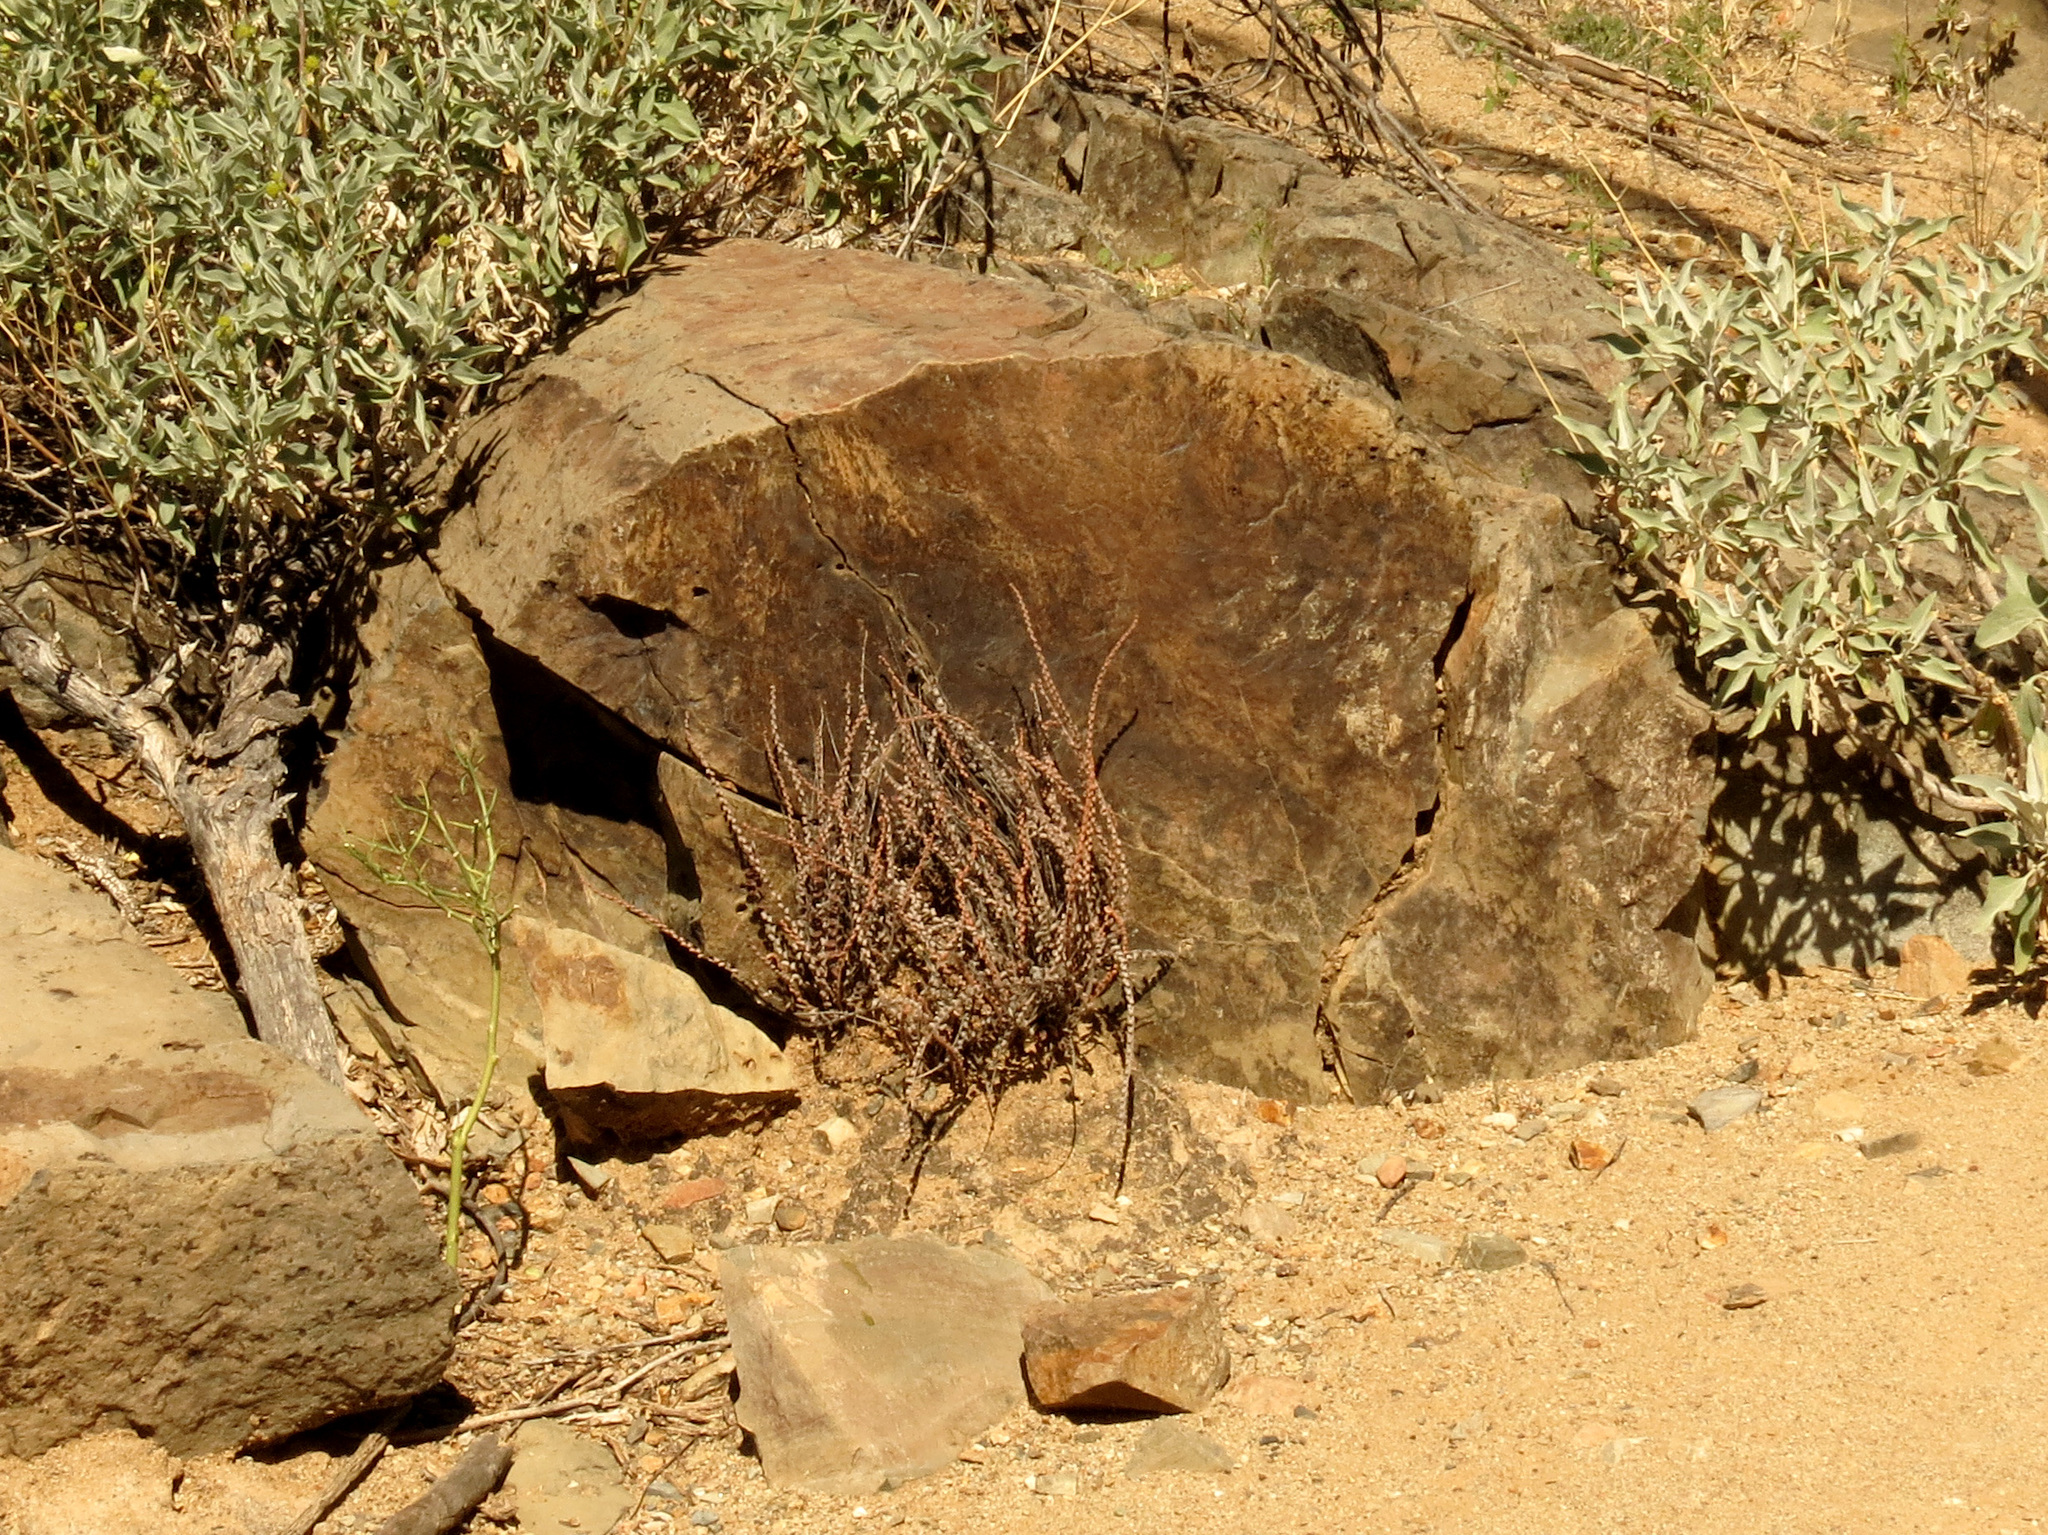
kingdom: Plantae
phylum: Tracheophyta
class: Polypodiopsida
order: Polypodiales
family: Pteridaceae
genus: Astrolepis
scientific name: Astrolepis cochisensis
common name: Scaly cloak fern
